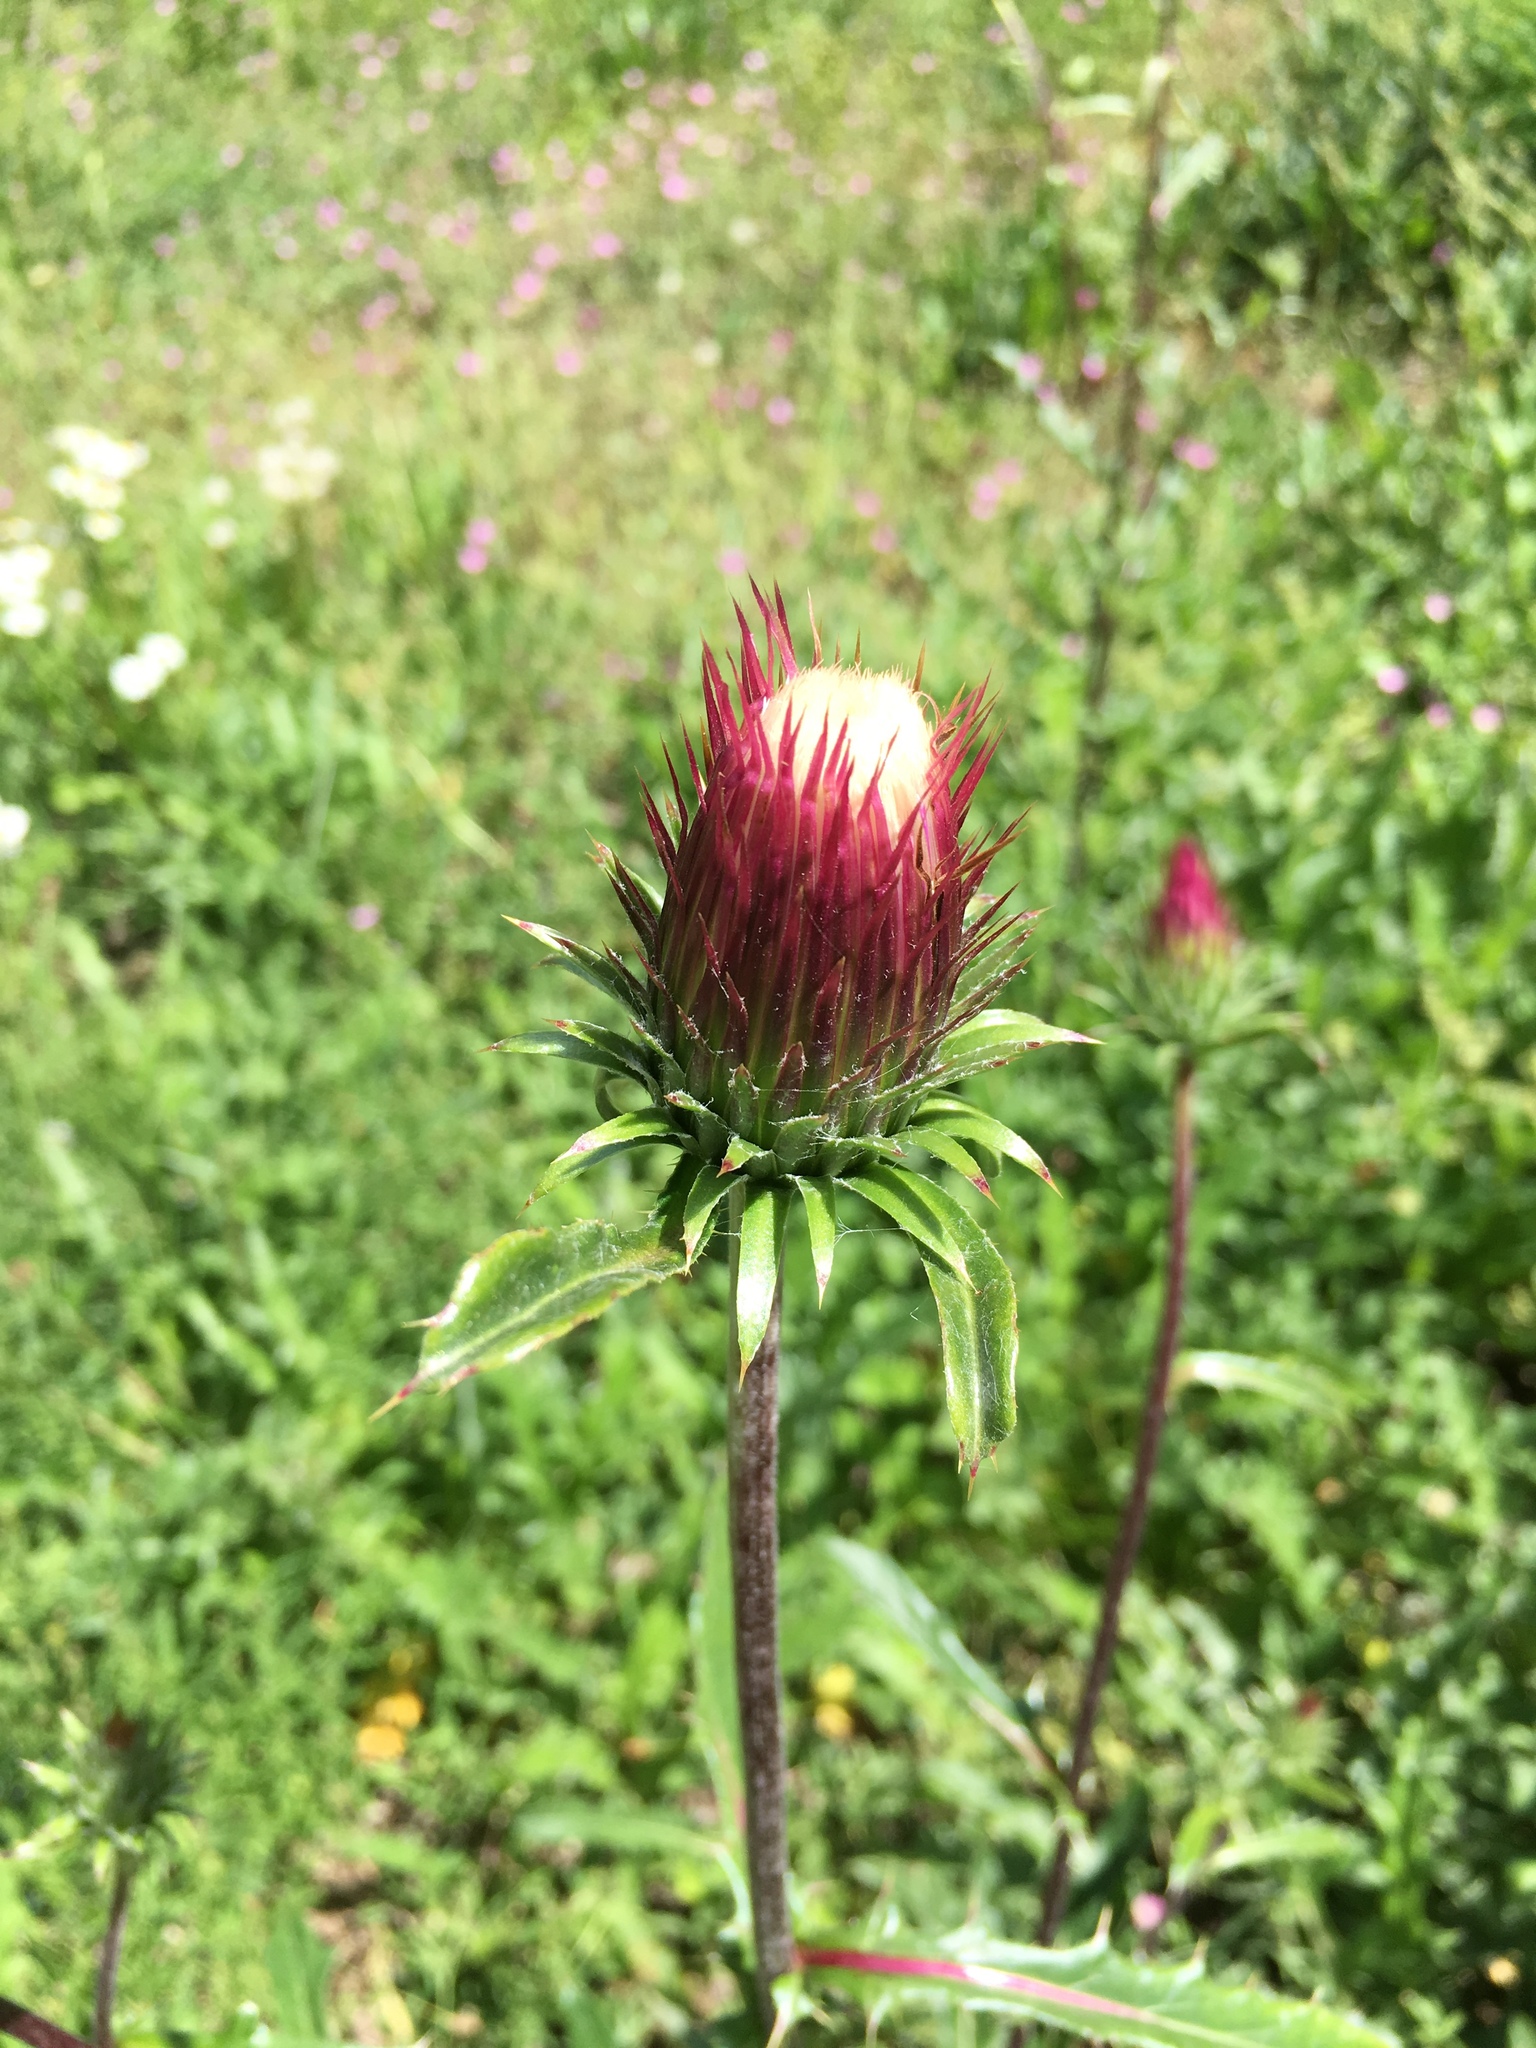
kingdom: Plantae
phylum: Tracheophyta
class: Magnoliopsida
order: Asterales
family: Asteraceae
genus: Cirsium
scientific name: Cirsium andersonii
